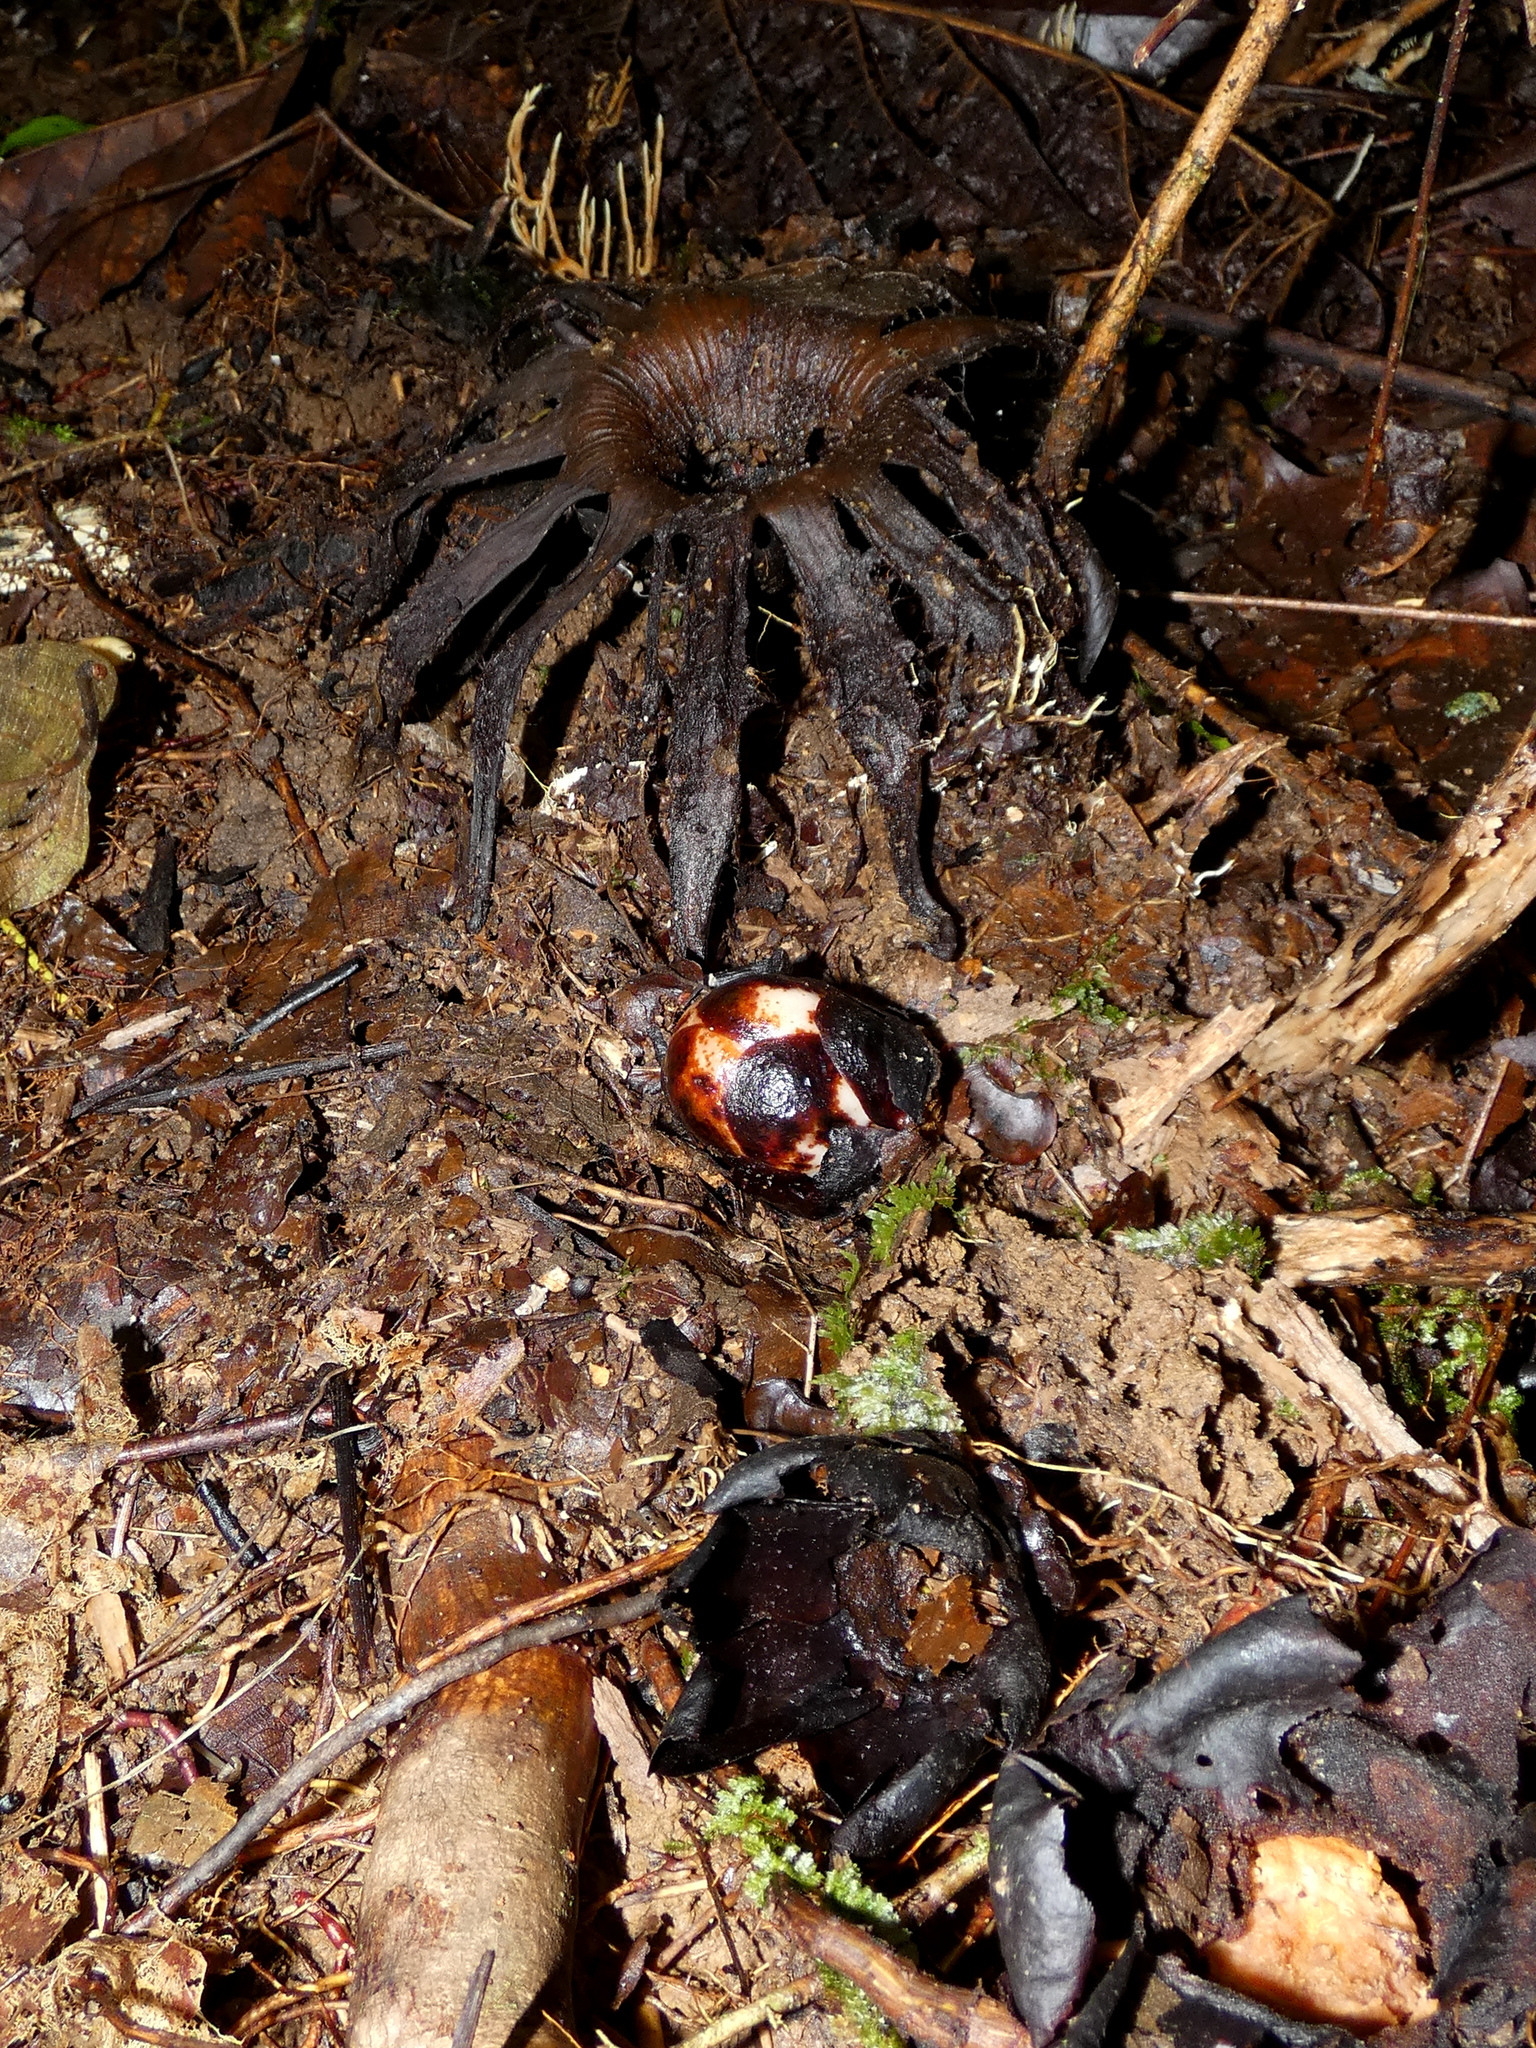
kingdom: Plantae
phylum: Tracheophyta
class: Magnoliopsida
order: Malpighiales
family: Rafflesiaceae
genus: Rhizanthes
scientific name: Rhizanthes lowii
